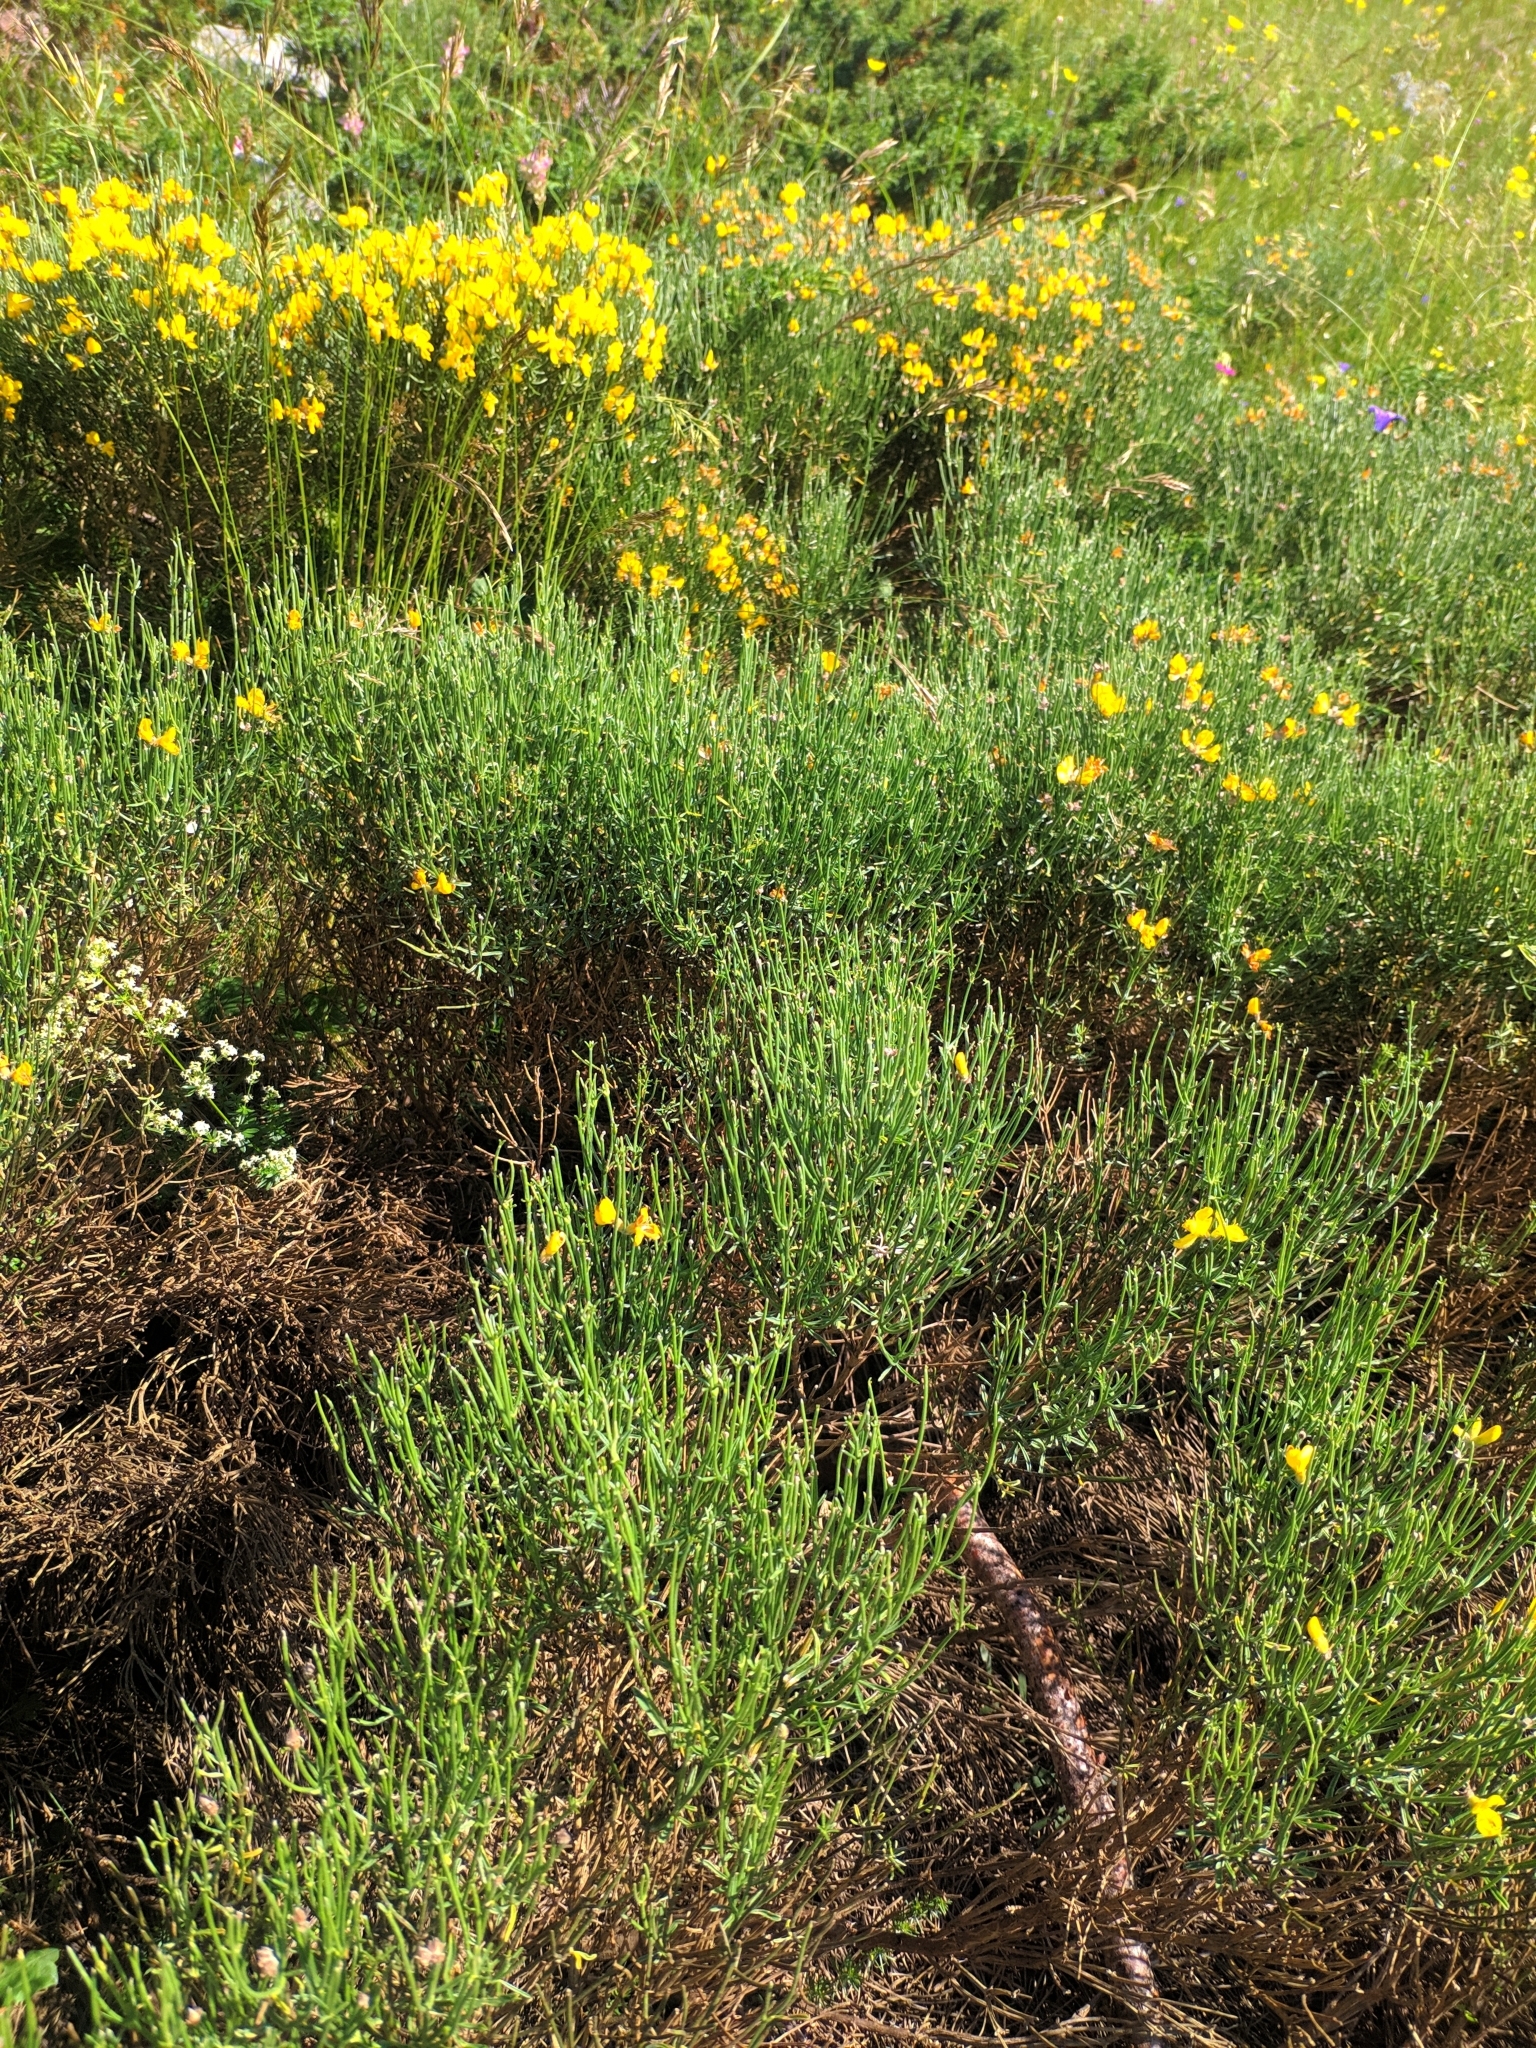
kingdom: Plantae
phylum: Tracheophyta
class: Magnoliopsida
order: Fabales
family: Fabaceae
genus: Genista
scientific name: Genista radiata
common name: Southern greenweed
